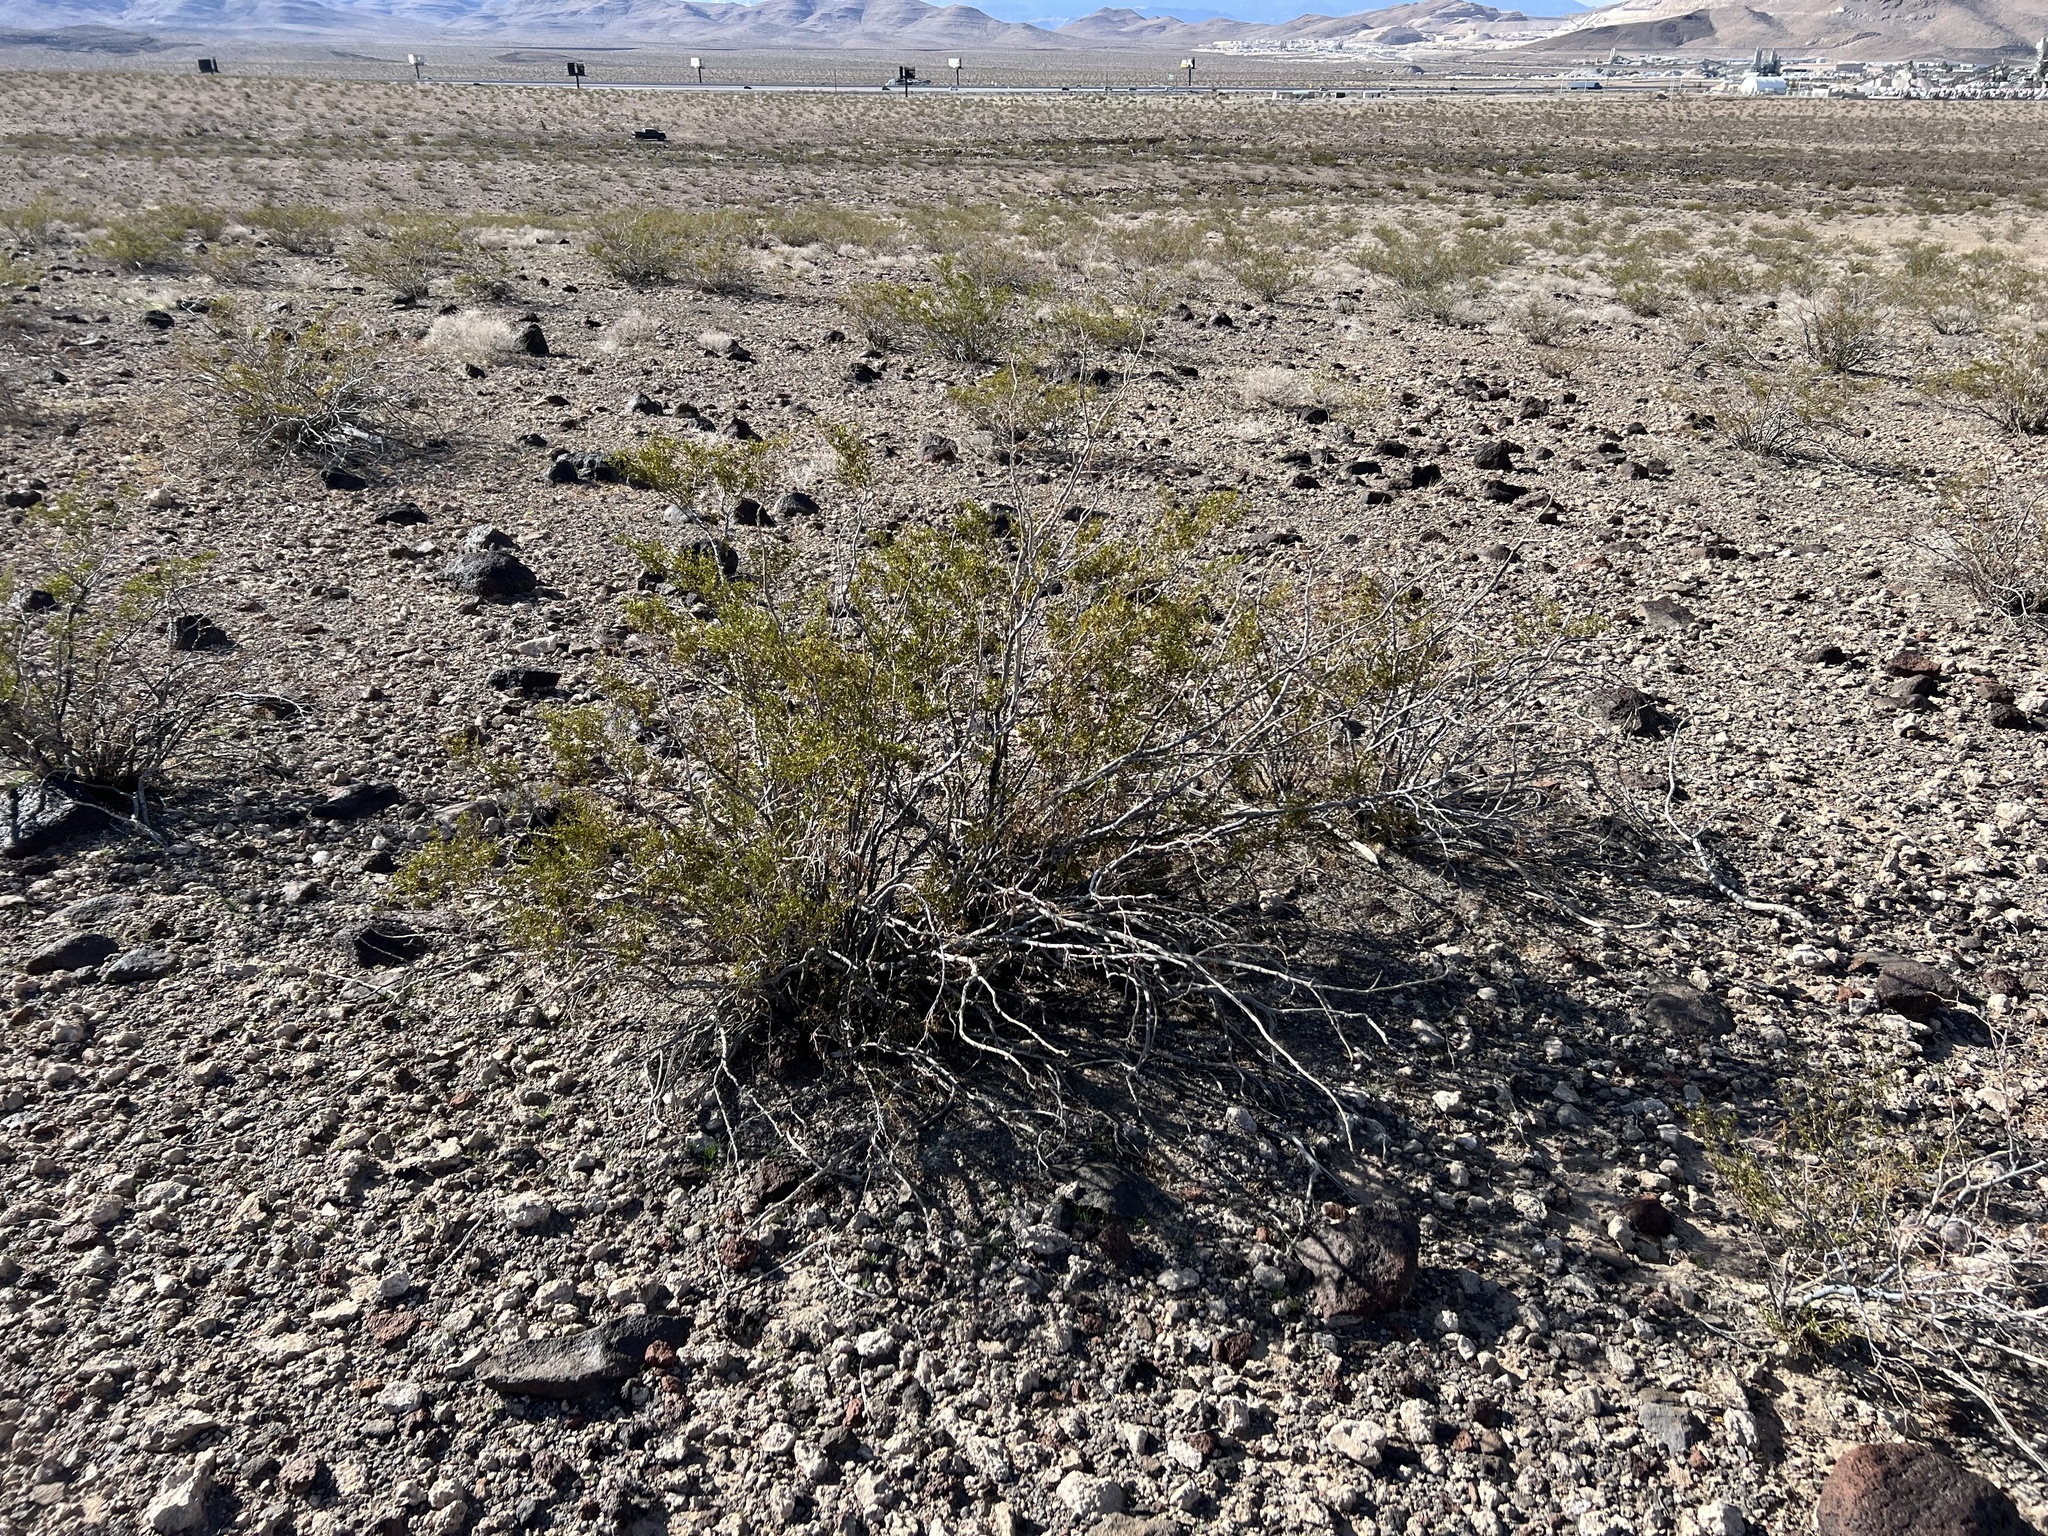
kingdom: Plantae
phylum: Tracheophyta
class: Magnoliopsida
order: Zygophyllales
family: Zygophyllaceae
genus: Larrea
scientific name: Larrea tridentata
